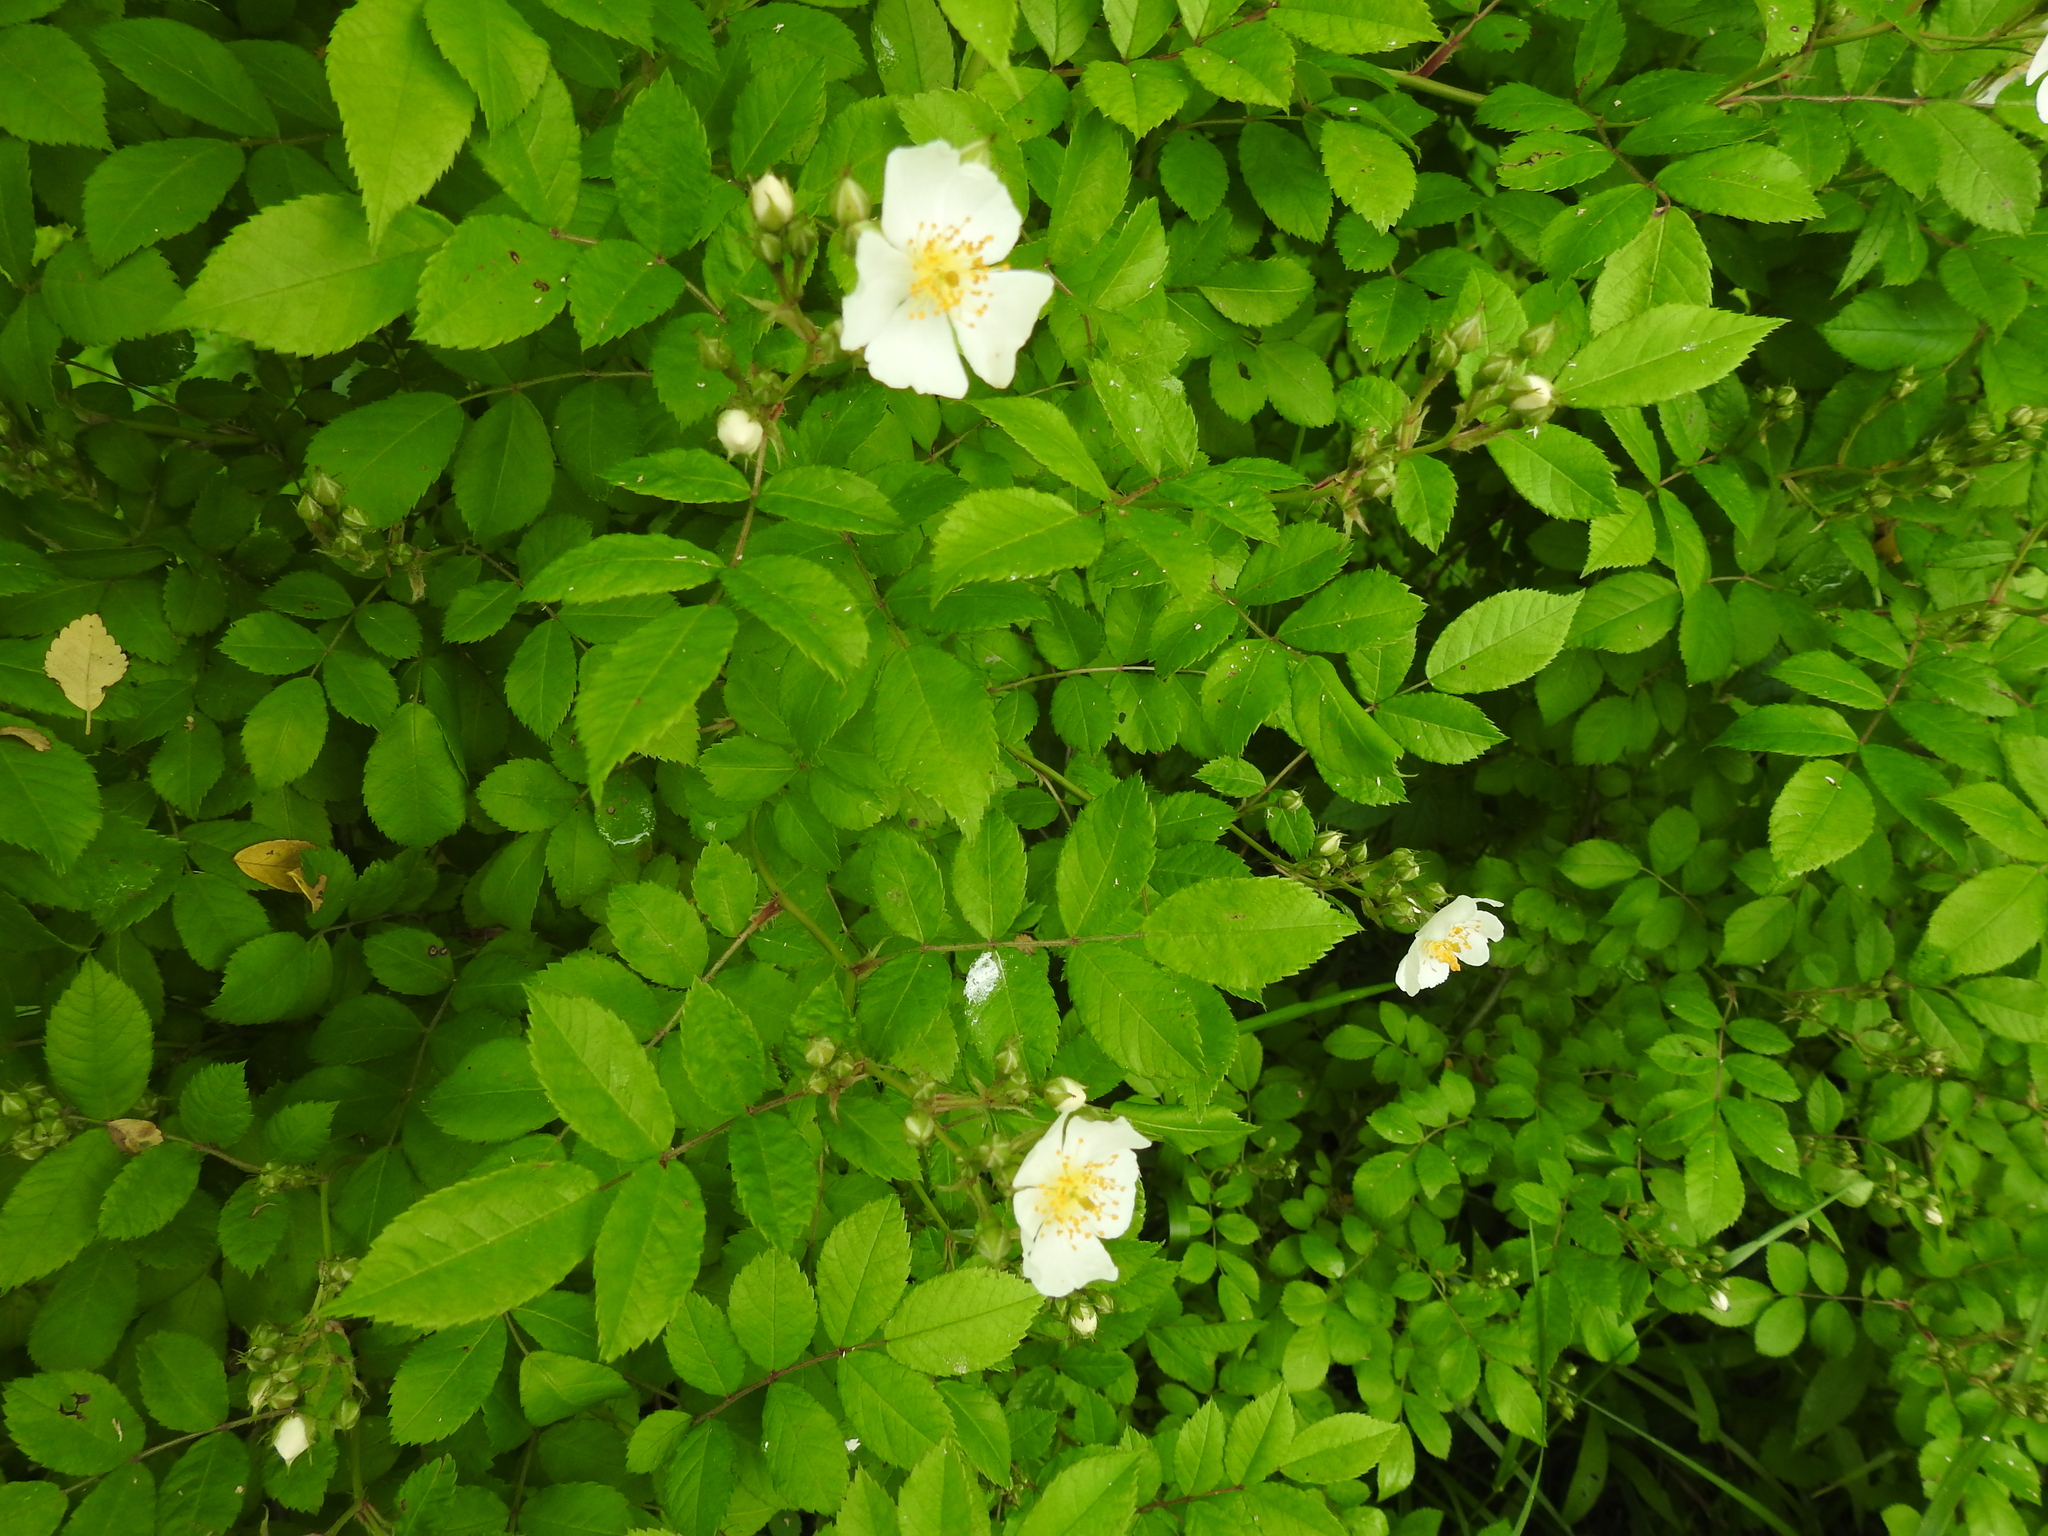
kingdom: Plantae
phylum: Tracheophyta
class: Magnoliopsida
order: Rosales
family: Rosaceae
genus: Rosa
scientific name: Rosa multiflora
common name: Multiflora rose
